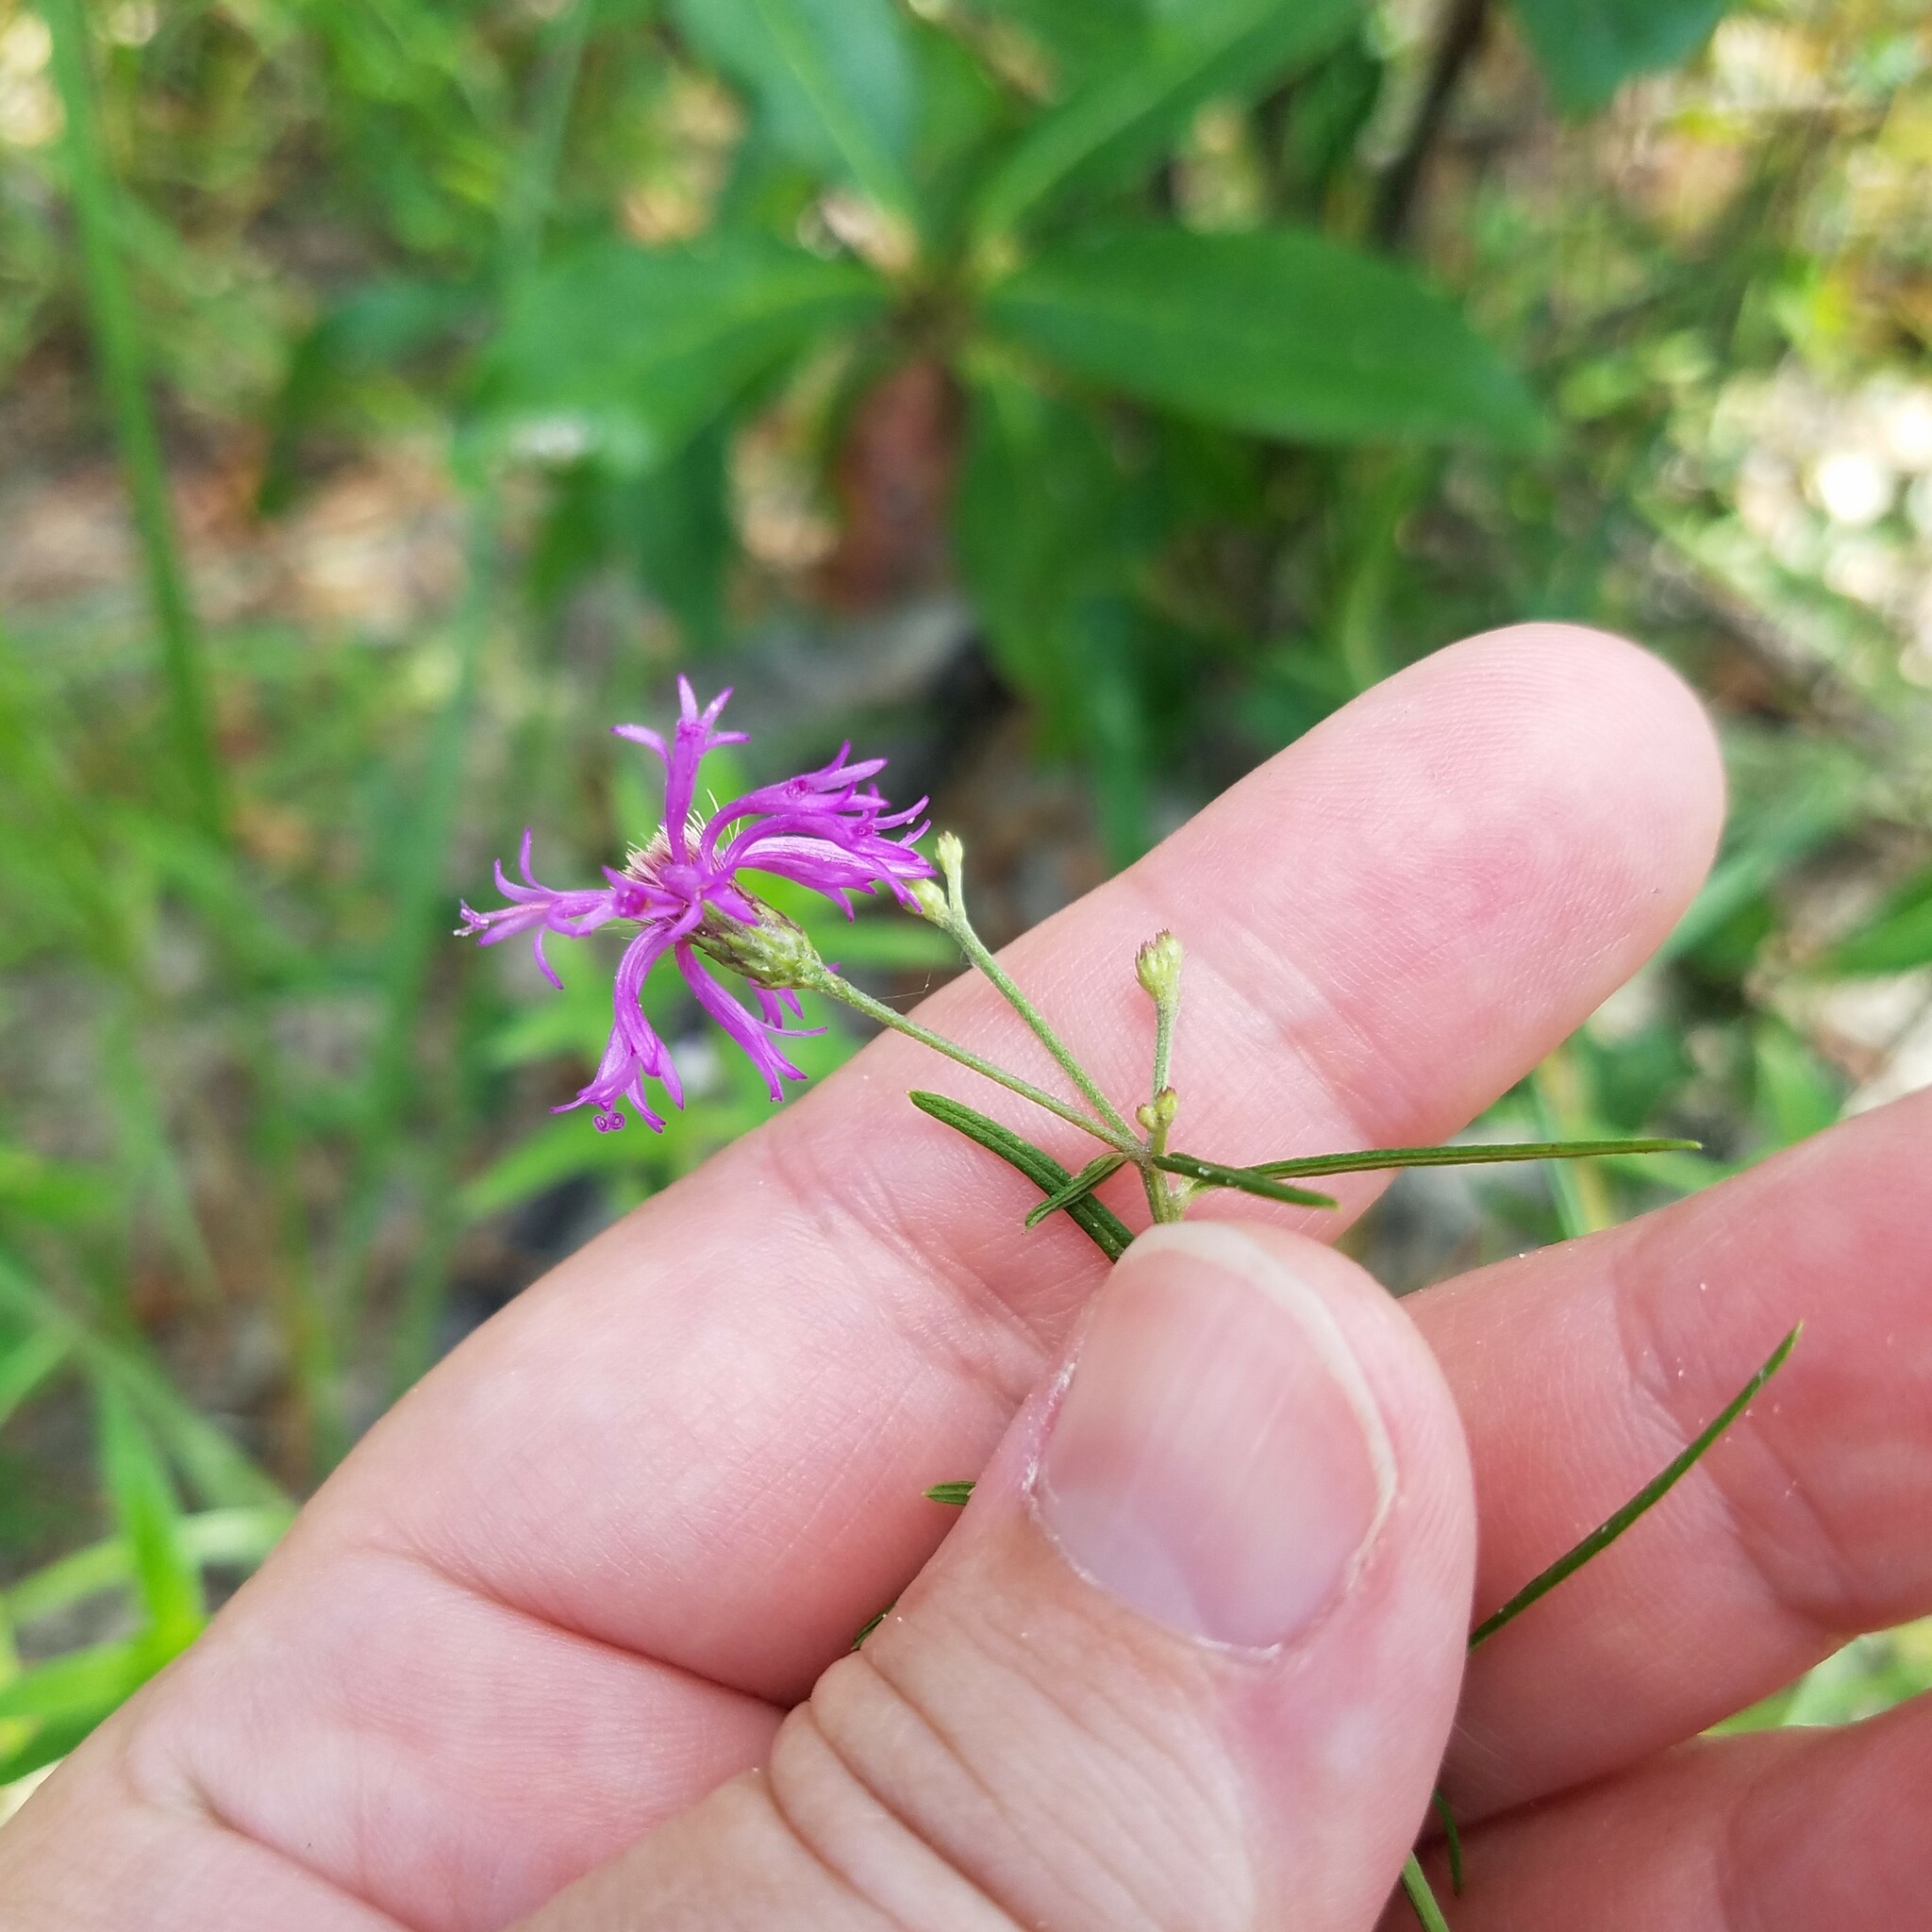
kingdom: Plantae
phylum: Tracheophyta
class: Magnoliopsida
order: Asterales
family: Asteraceae
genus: Vernonia
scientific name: Vernonia angustifolia
